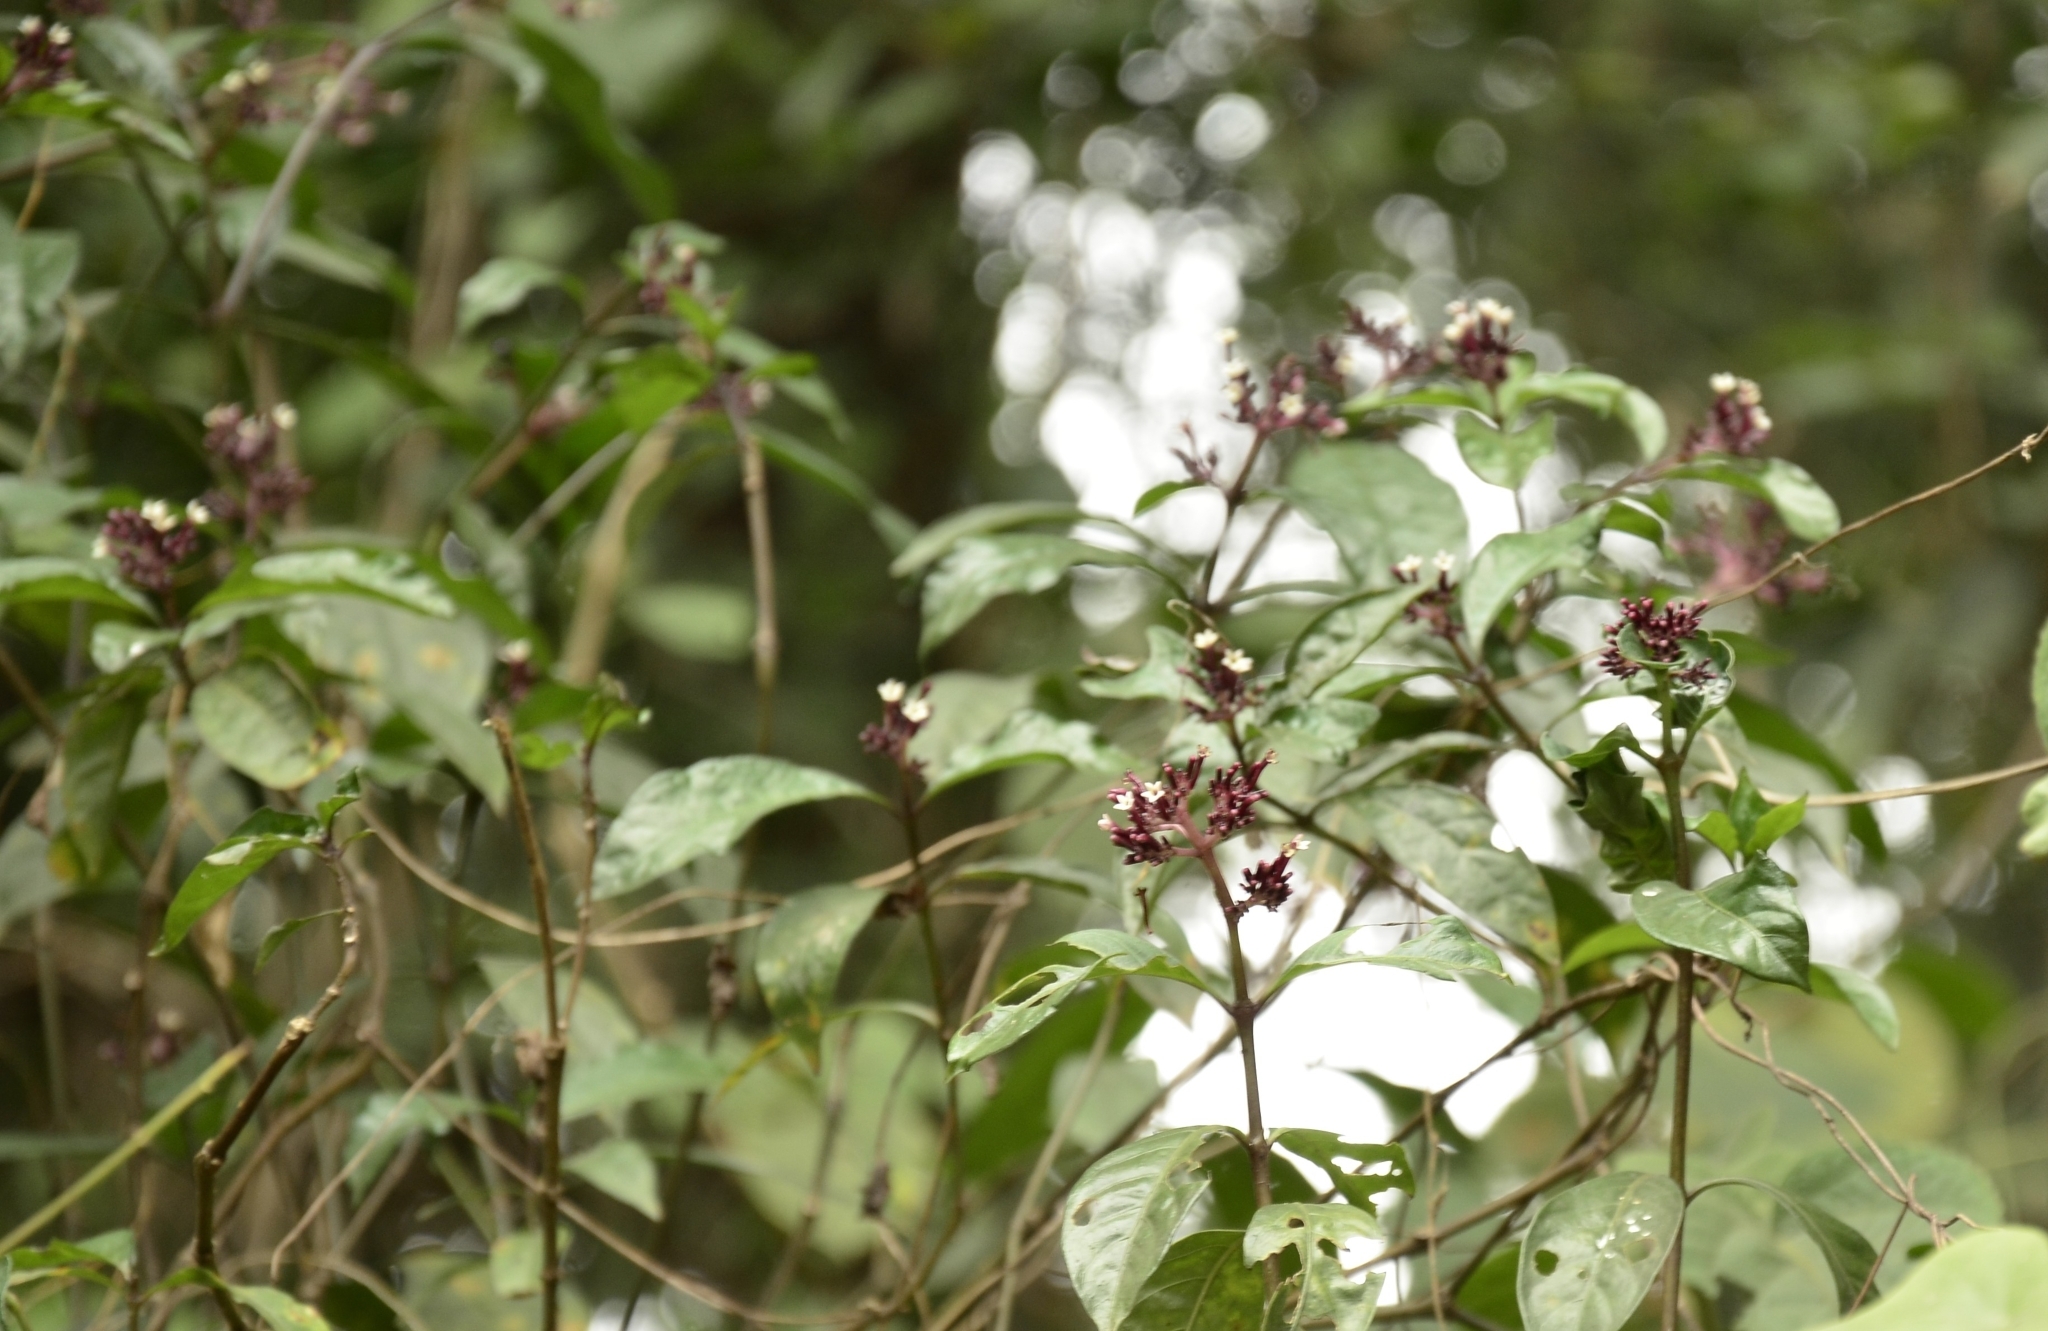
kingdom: Plantae
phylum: Tracheophyta
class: Magnoliopsida
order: Gentianales
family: Rubiaceae
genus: Chassalia
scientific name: Chassalia curviflora
